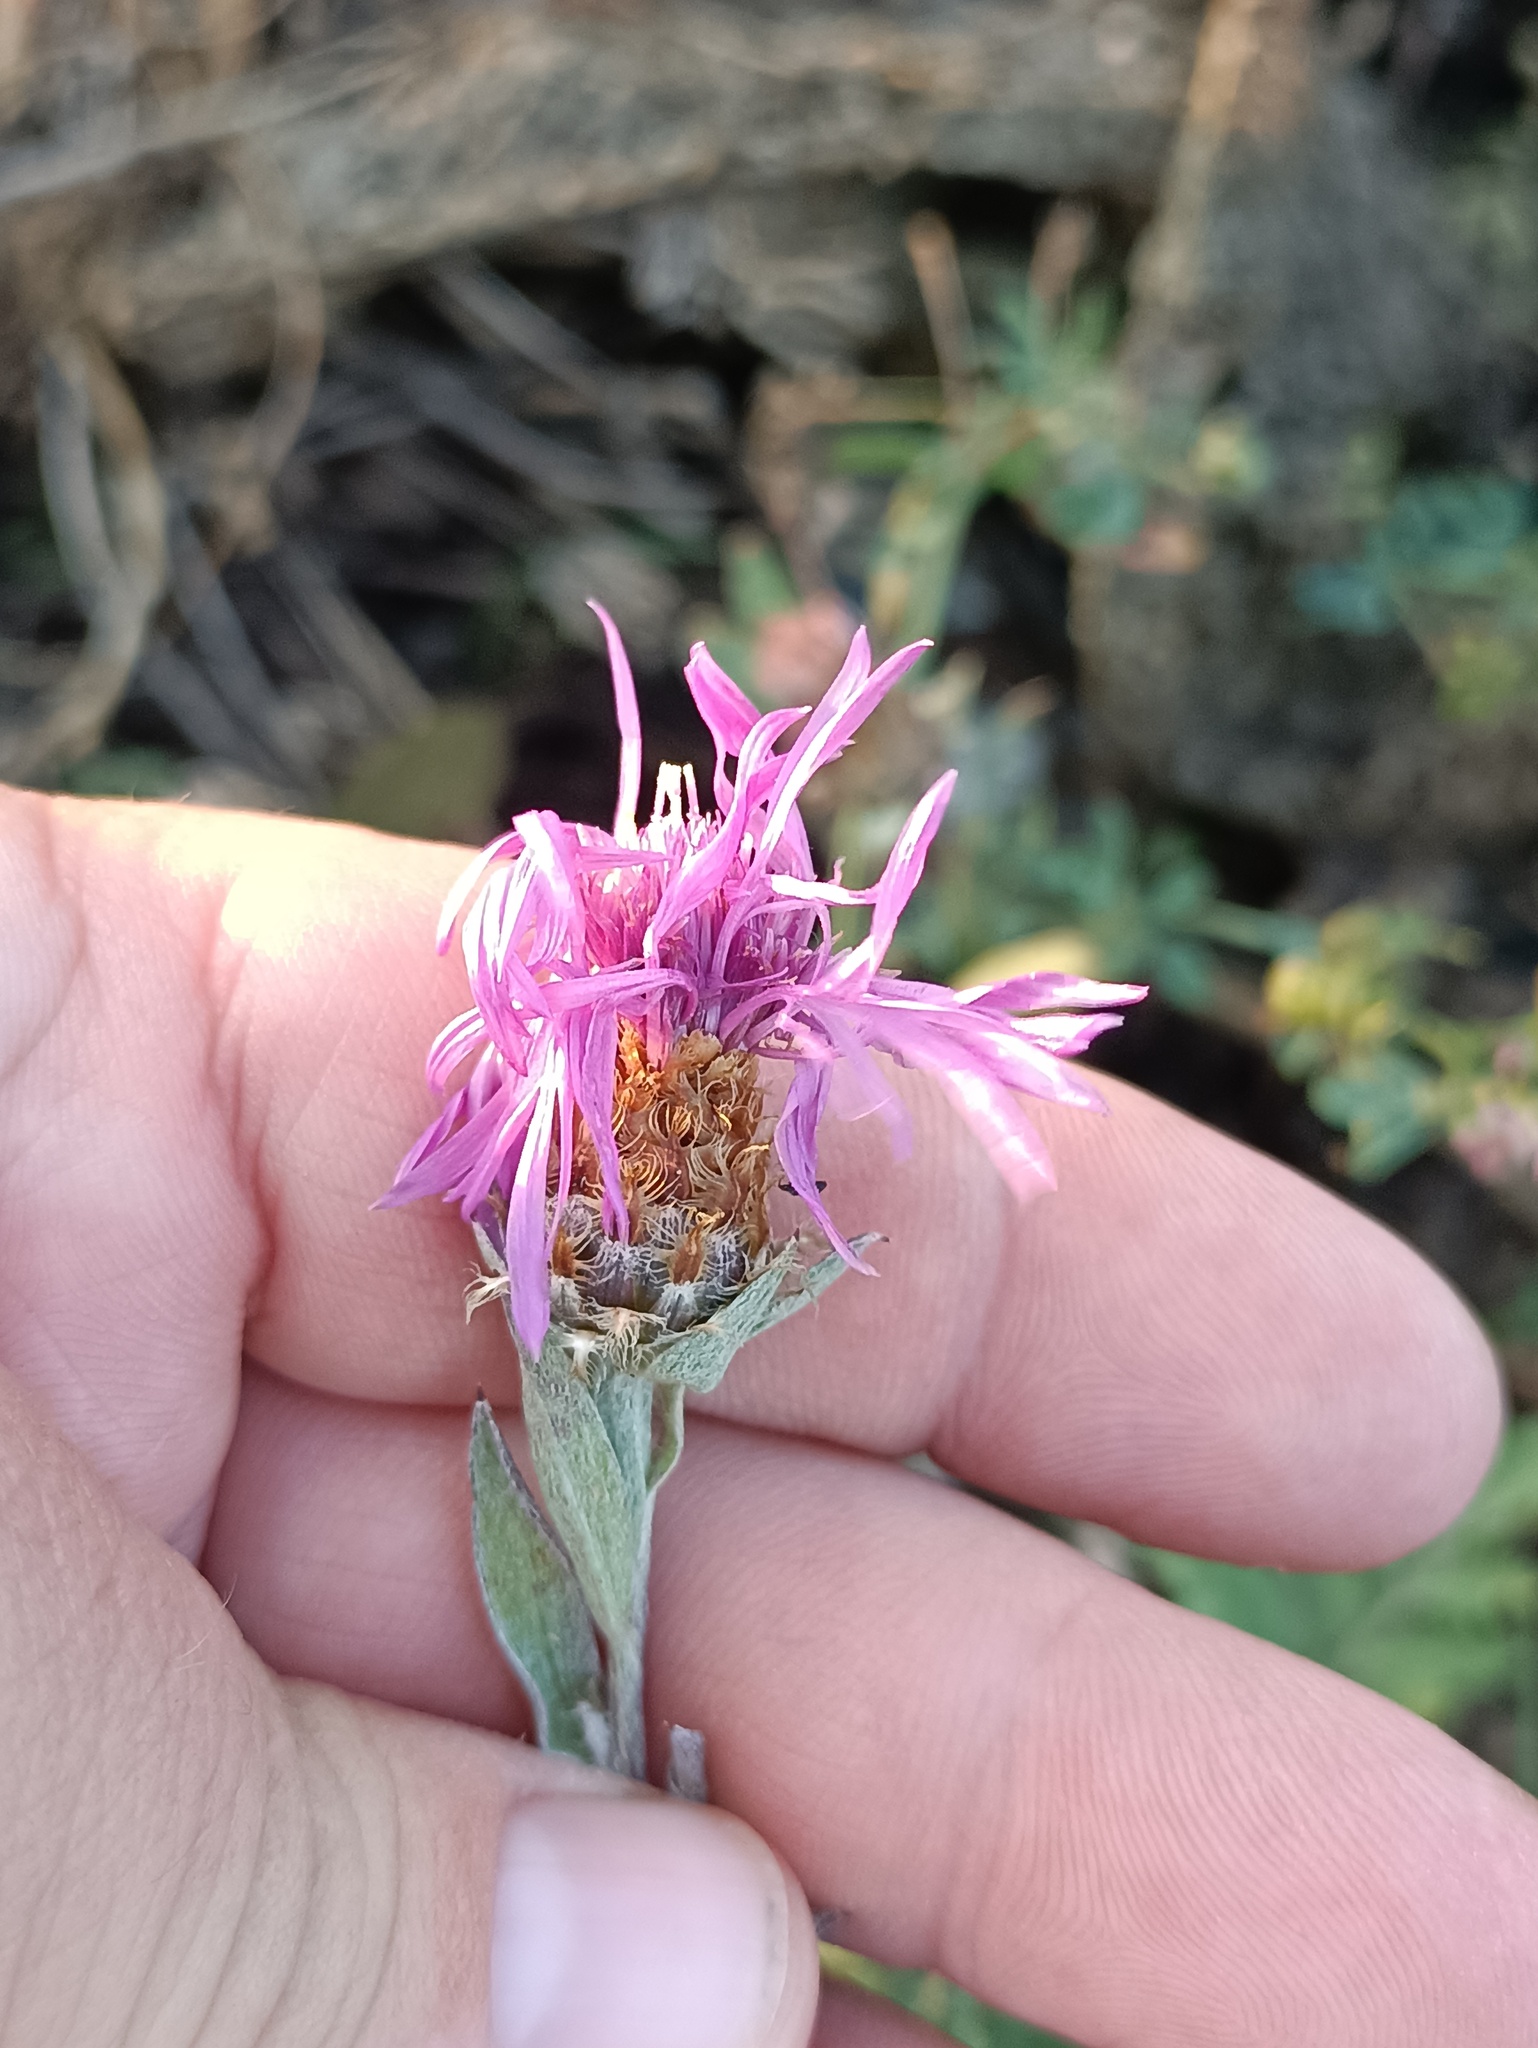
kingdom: Plantae
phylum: Tracheophyta
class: Magnoliopsida
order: Asterales
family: Asteraceae
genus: Centaurea
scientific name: Centaurea jacea
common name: Brown knapweed
